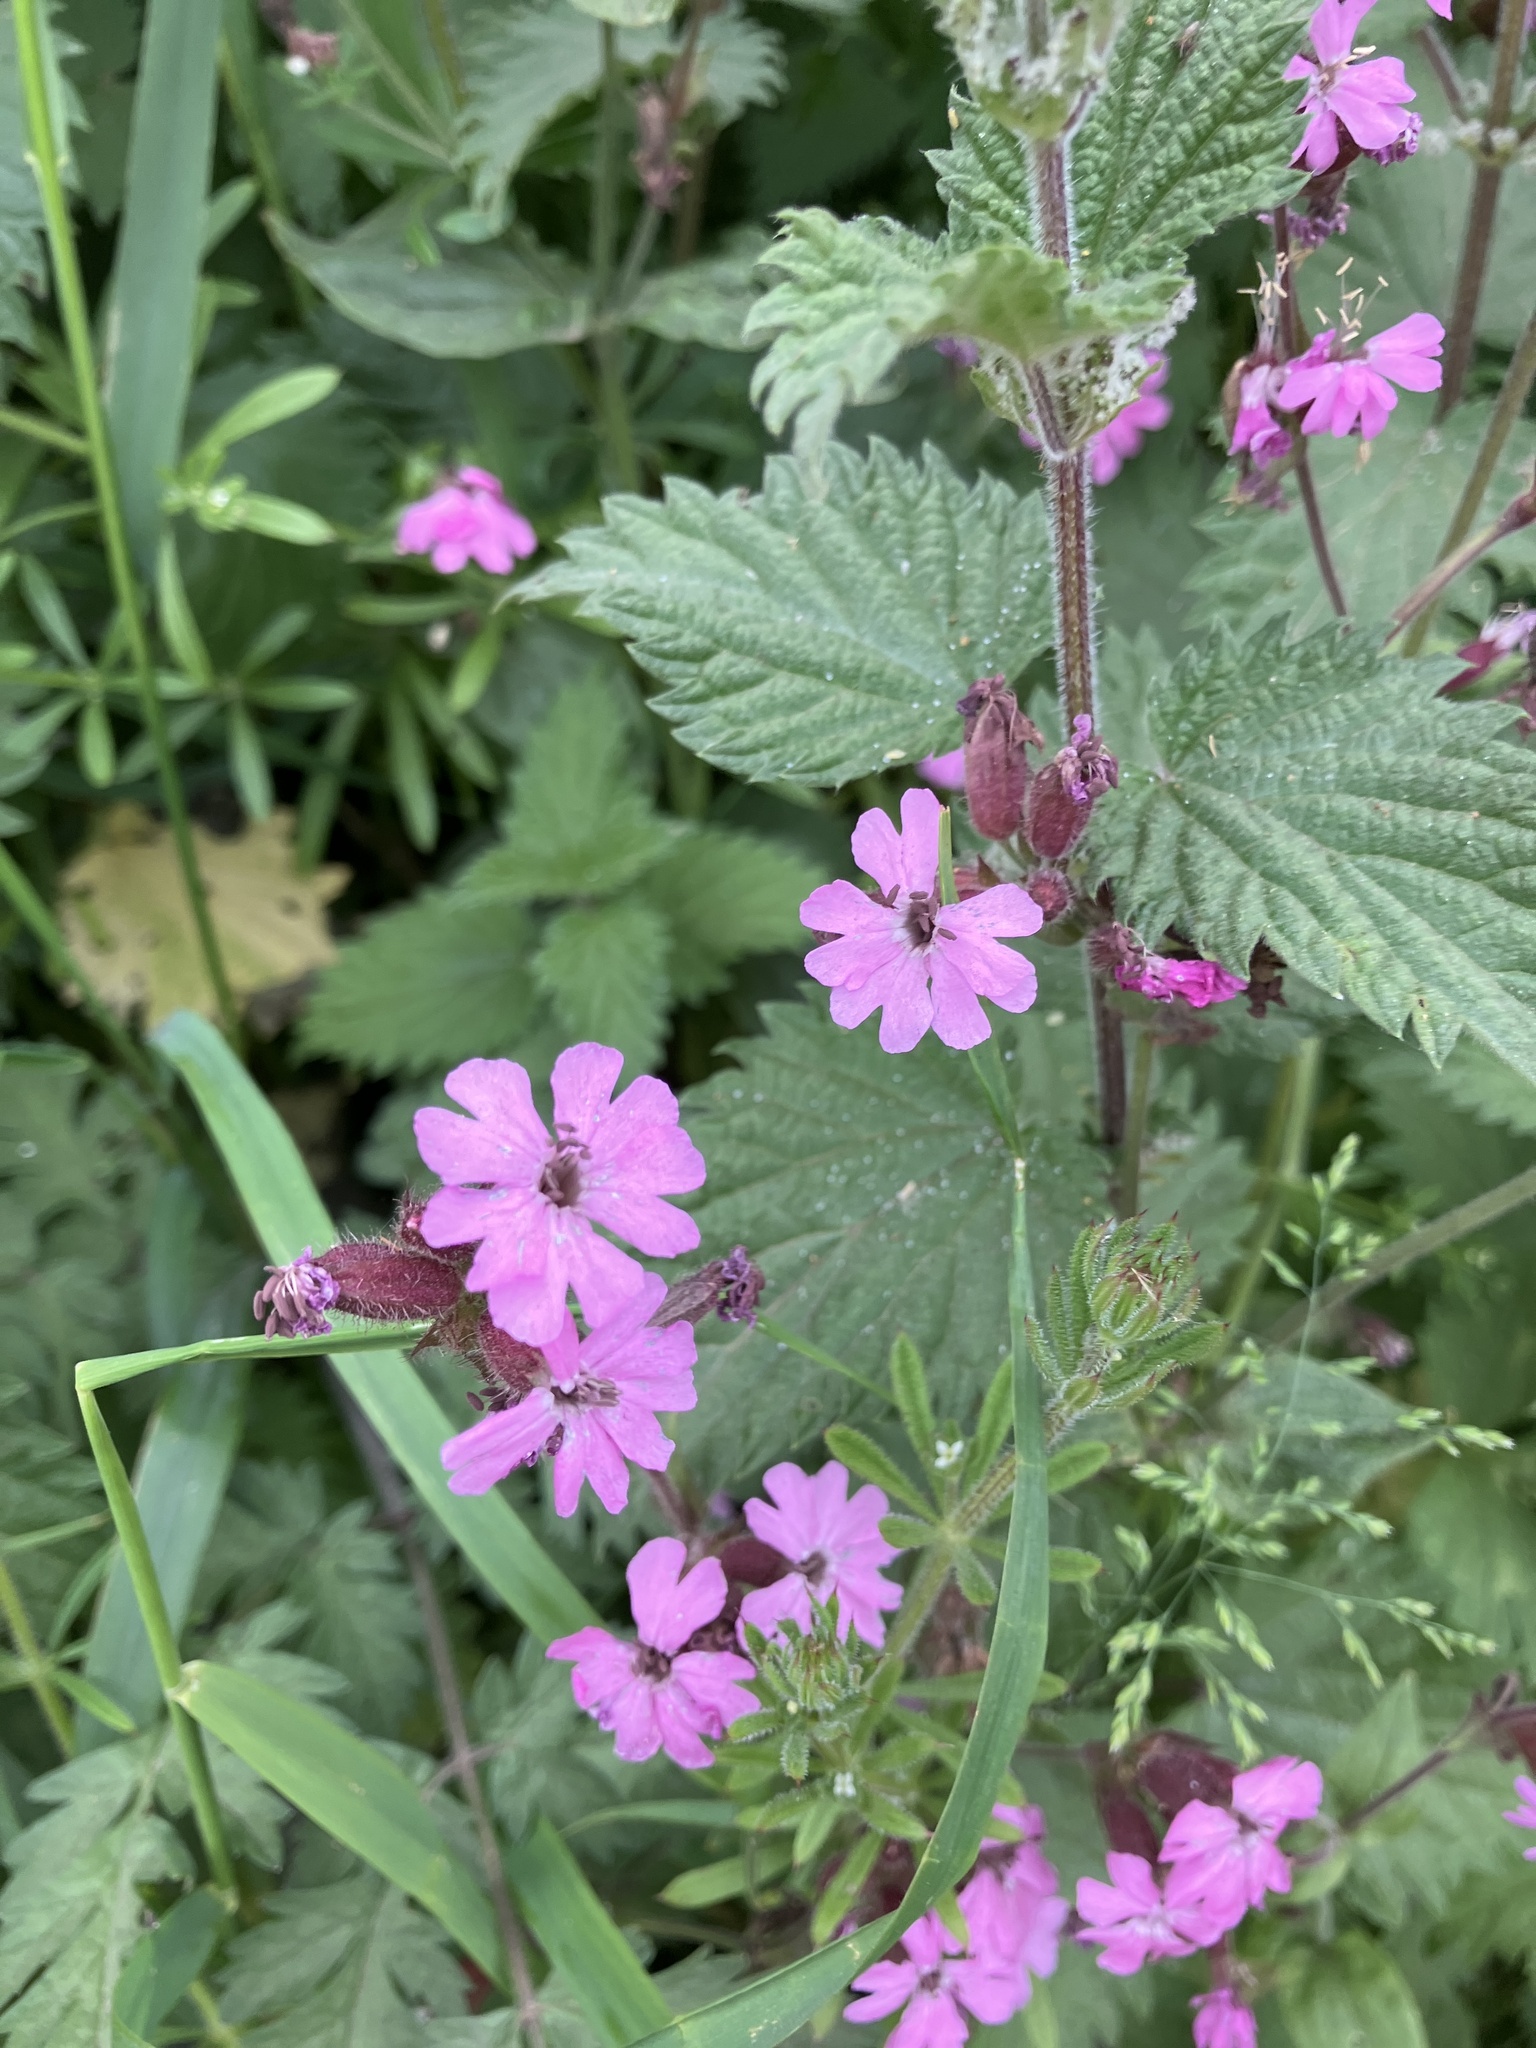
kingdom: Plantae
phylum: Tracheophyta
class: Magnoliopsida
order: Caryophyllales
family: Caryophyllaceae
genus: Silene
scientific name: Silene dioica
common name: Red campion
